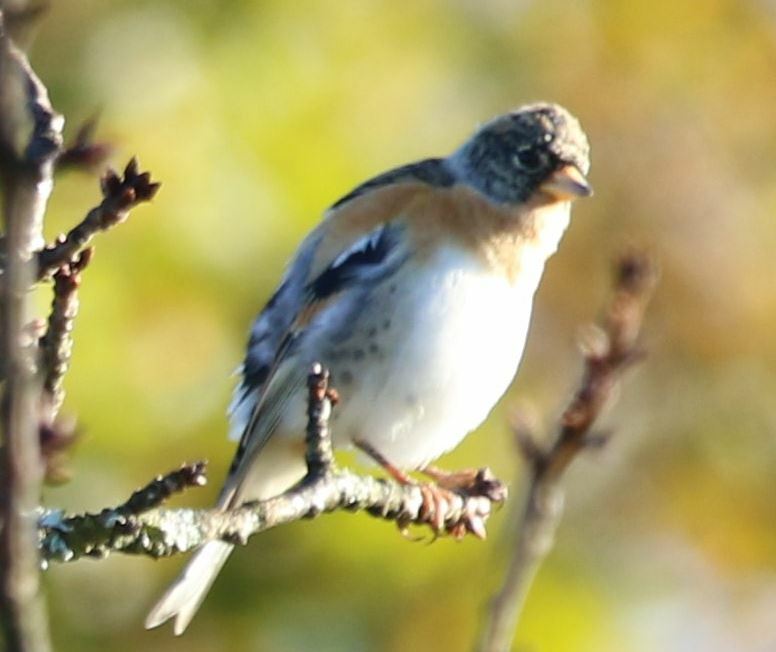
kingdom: Animalia
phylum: Chordata
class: Aves
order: Passeriformes
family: Fringillidae
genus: Fringilla
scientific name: Fringilla montifringilla
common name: Brambling
